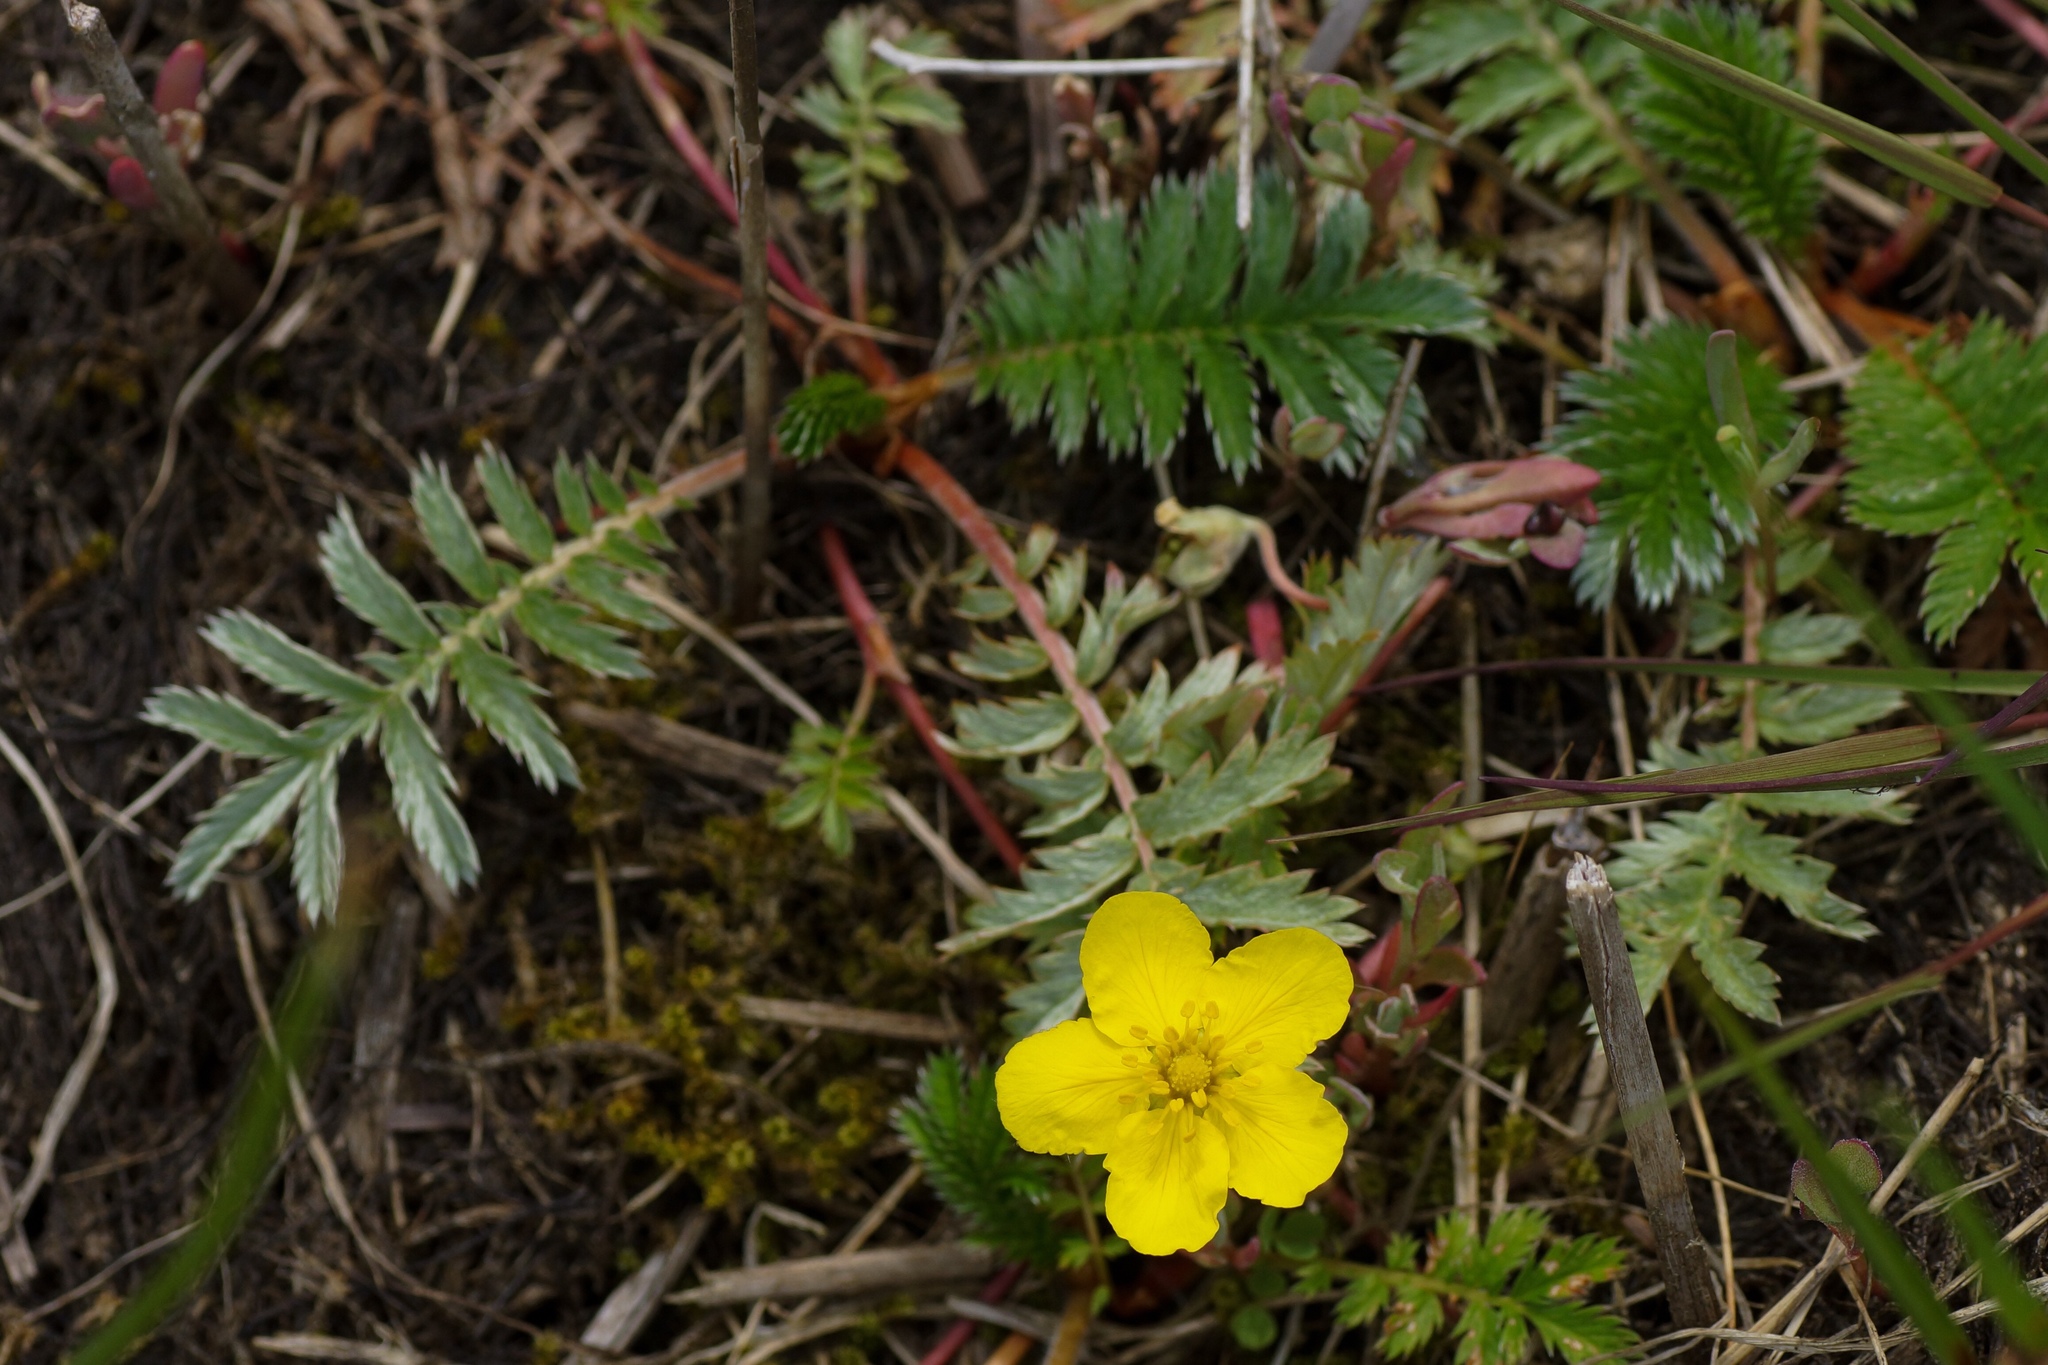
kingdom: Plantae
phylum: Tracheophyta
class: Magnoliopsida
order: Rosales
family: Rosaceae
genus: Argentina
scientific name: Argentina anserina
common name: Common silverweed
